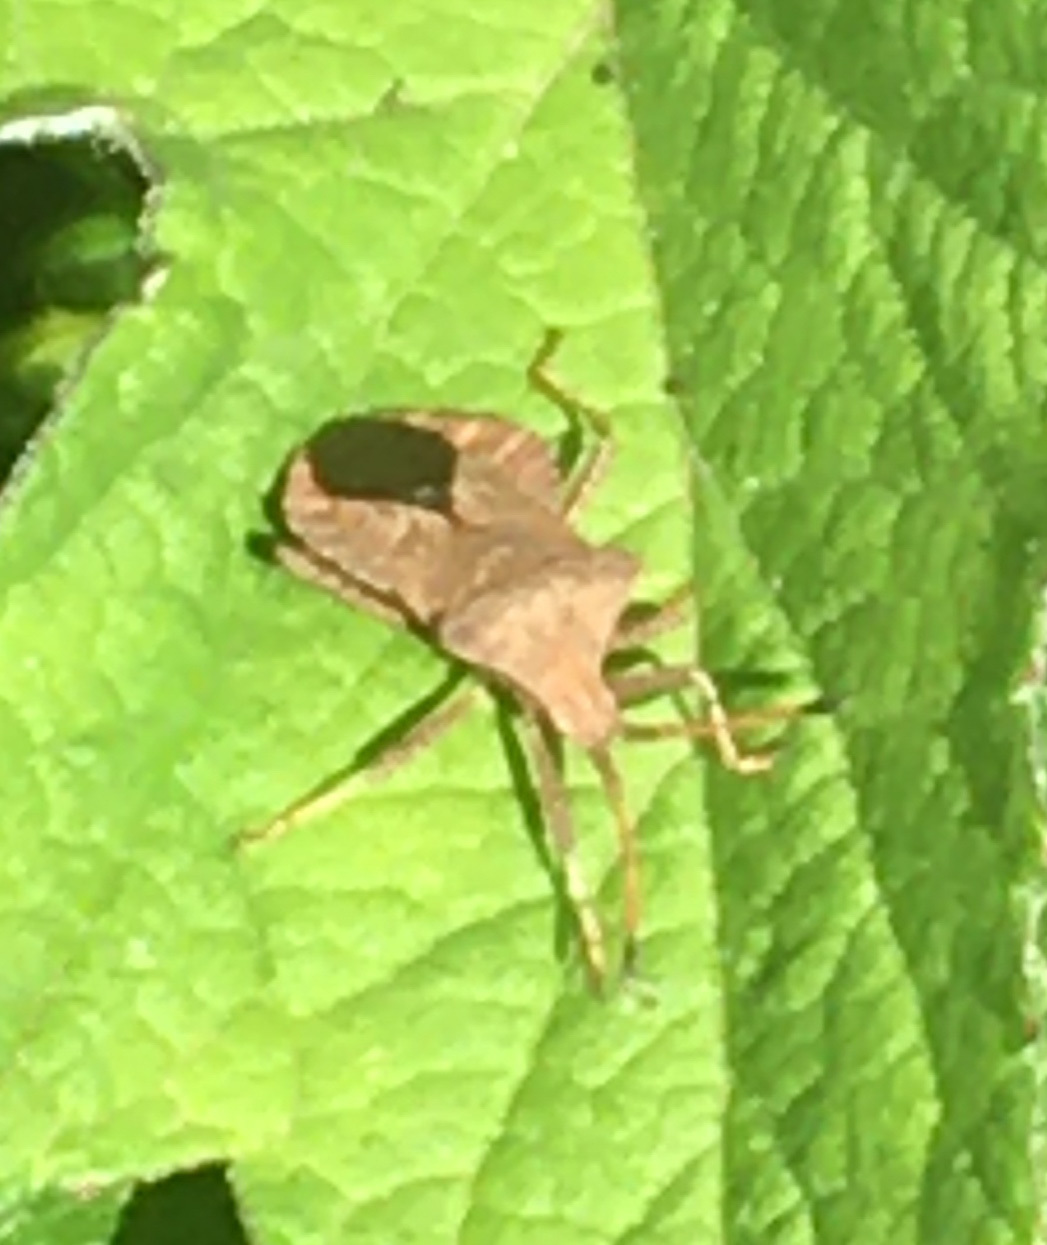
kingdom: Animalia
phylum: Arthropoda
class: Insecta
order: Hemiptera
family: Coreidae
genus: Coreus
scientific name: Coreus marginatus
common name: Dock bug
